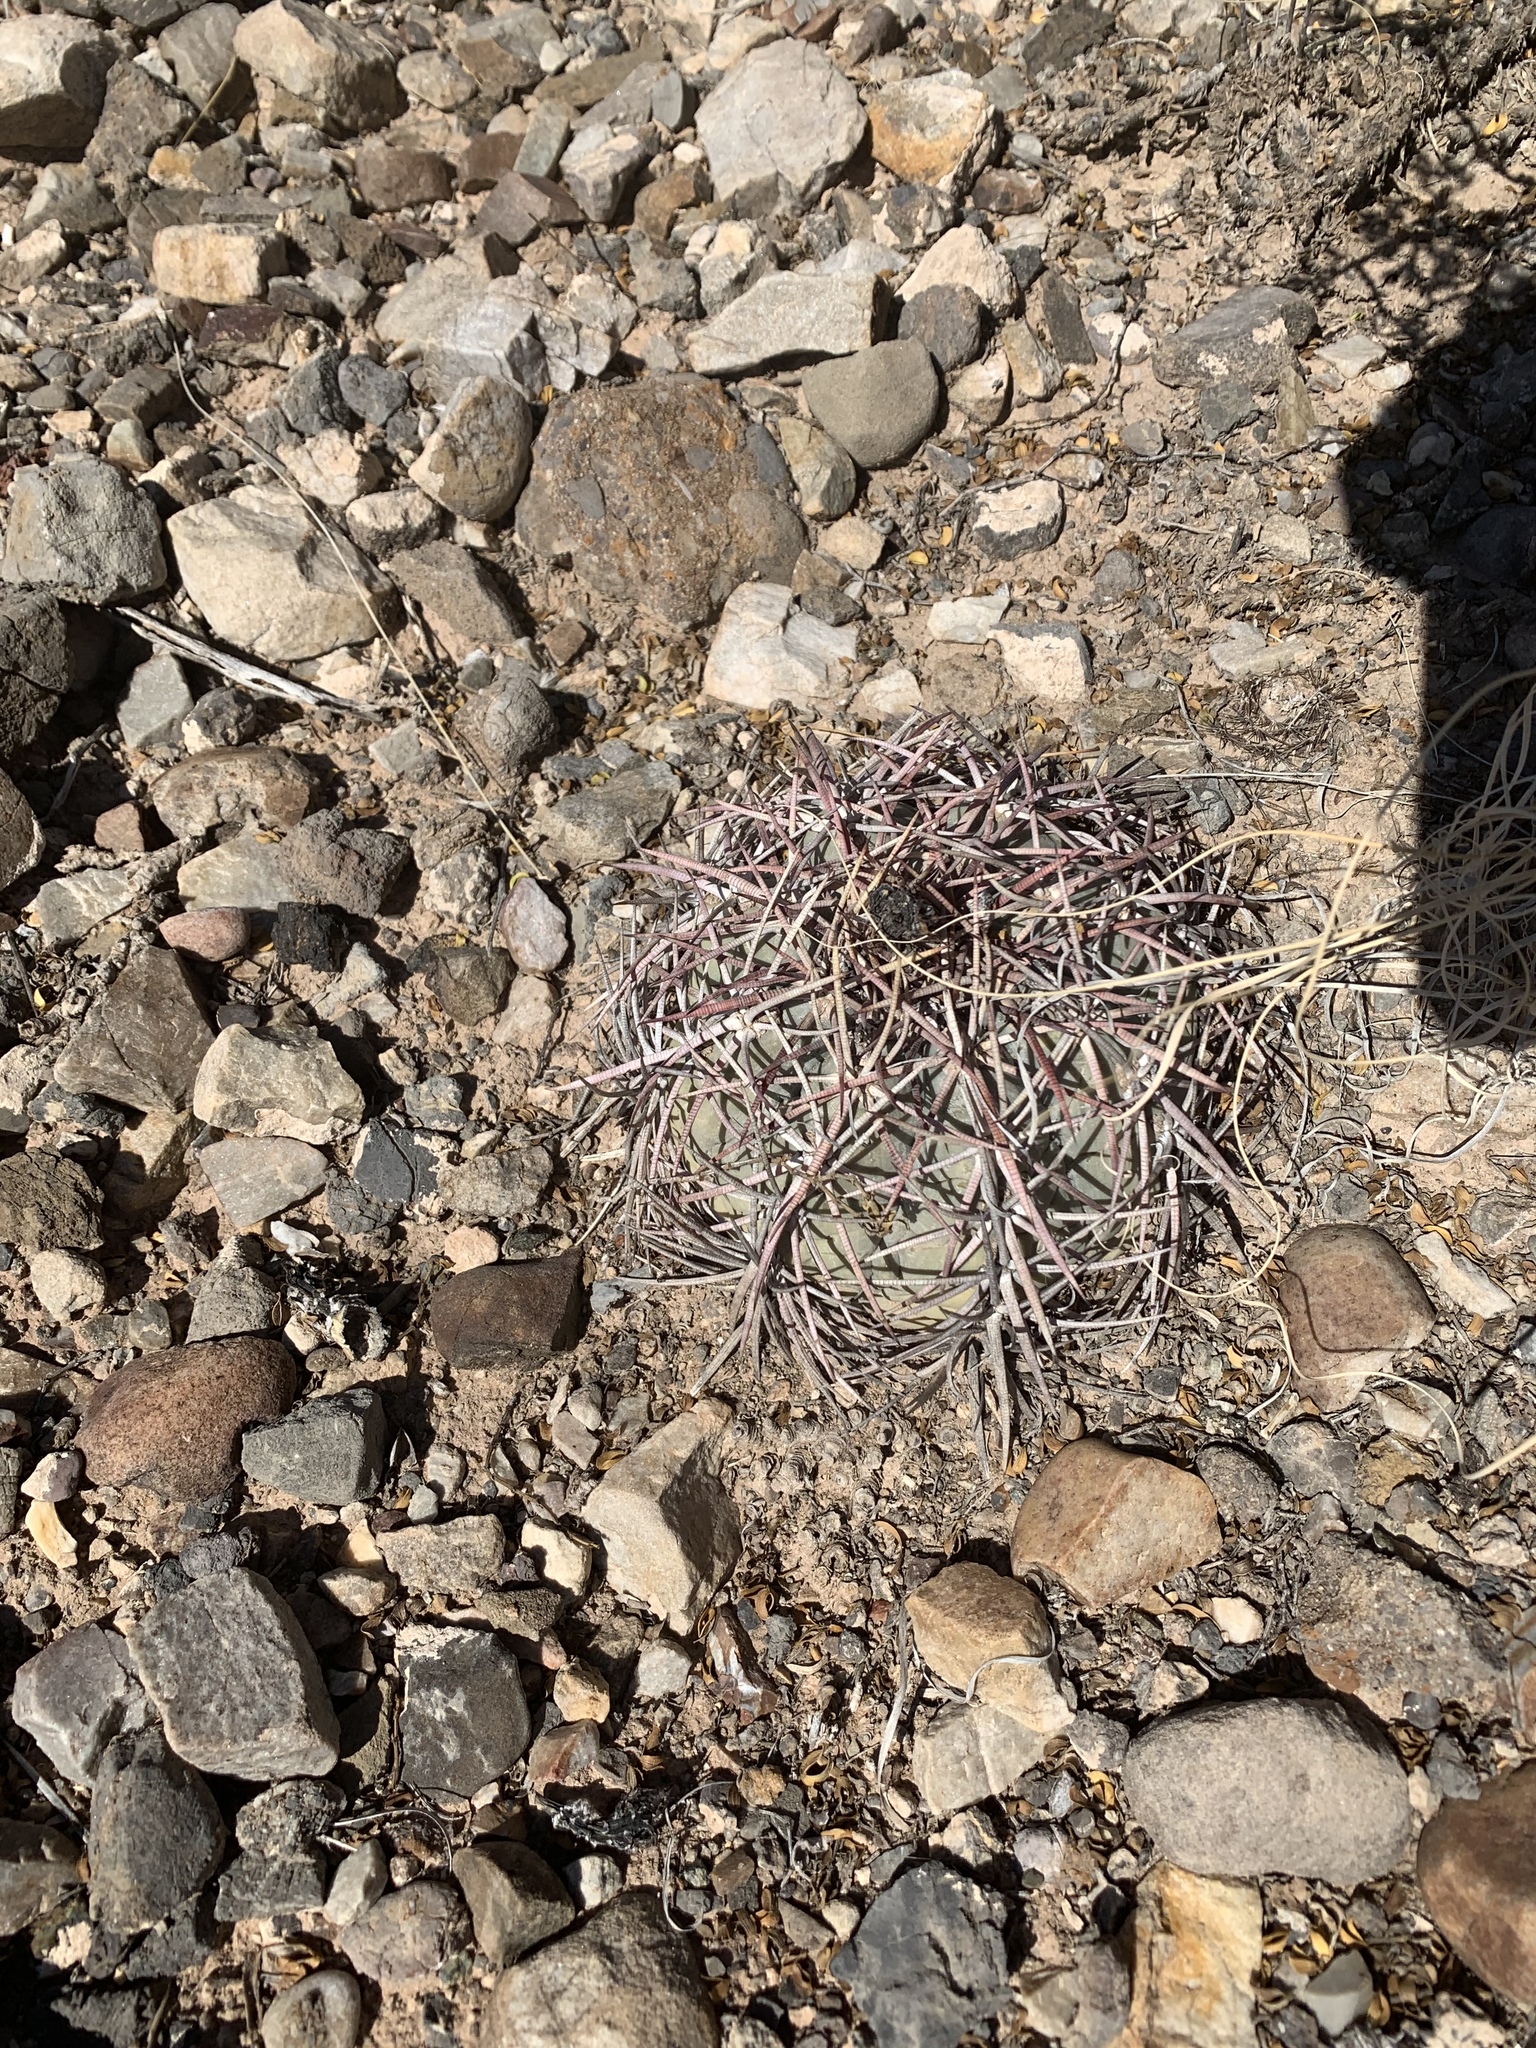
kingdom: Plantae
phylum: Tracheophyta
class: Magnoliopsida
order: Caryophyllales
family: Cactaceae
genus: Echinocactus
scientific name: Echinocactus horizonthalonius
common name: Devilshead
